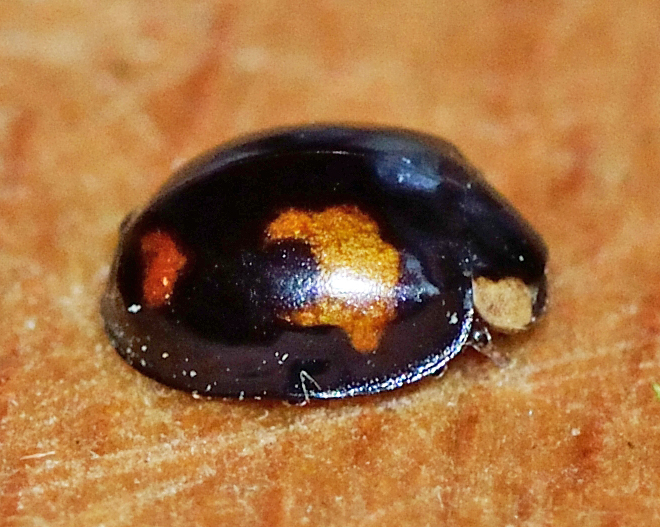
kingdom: Animalia
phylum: Arthropoda
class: Insecta
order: Coleoptera
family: Coccinellidae
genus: Harmonia
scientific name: Harmonia axyridis
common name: Harlequin ladybird
